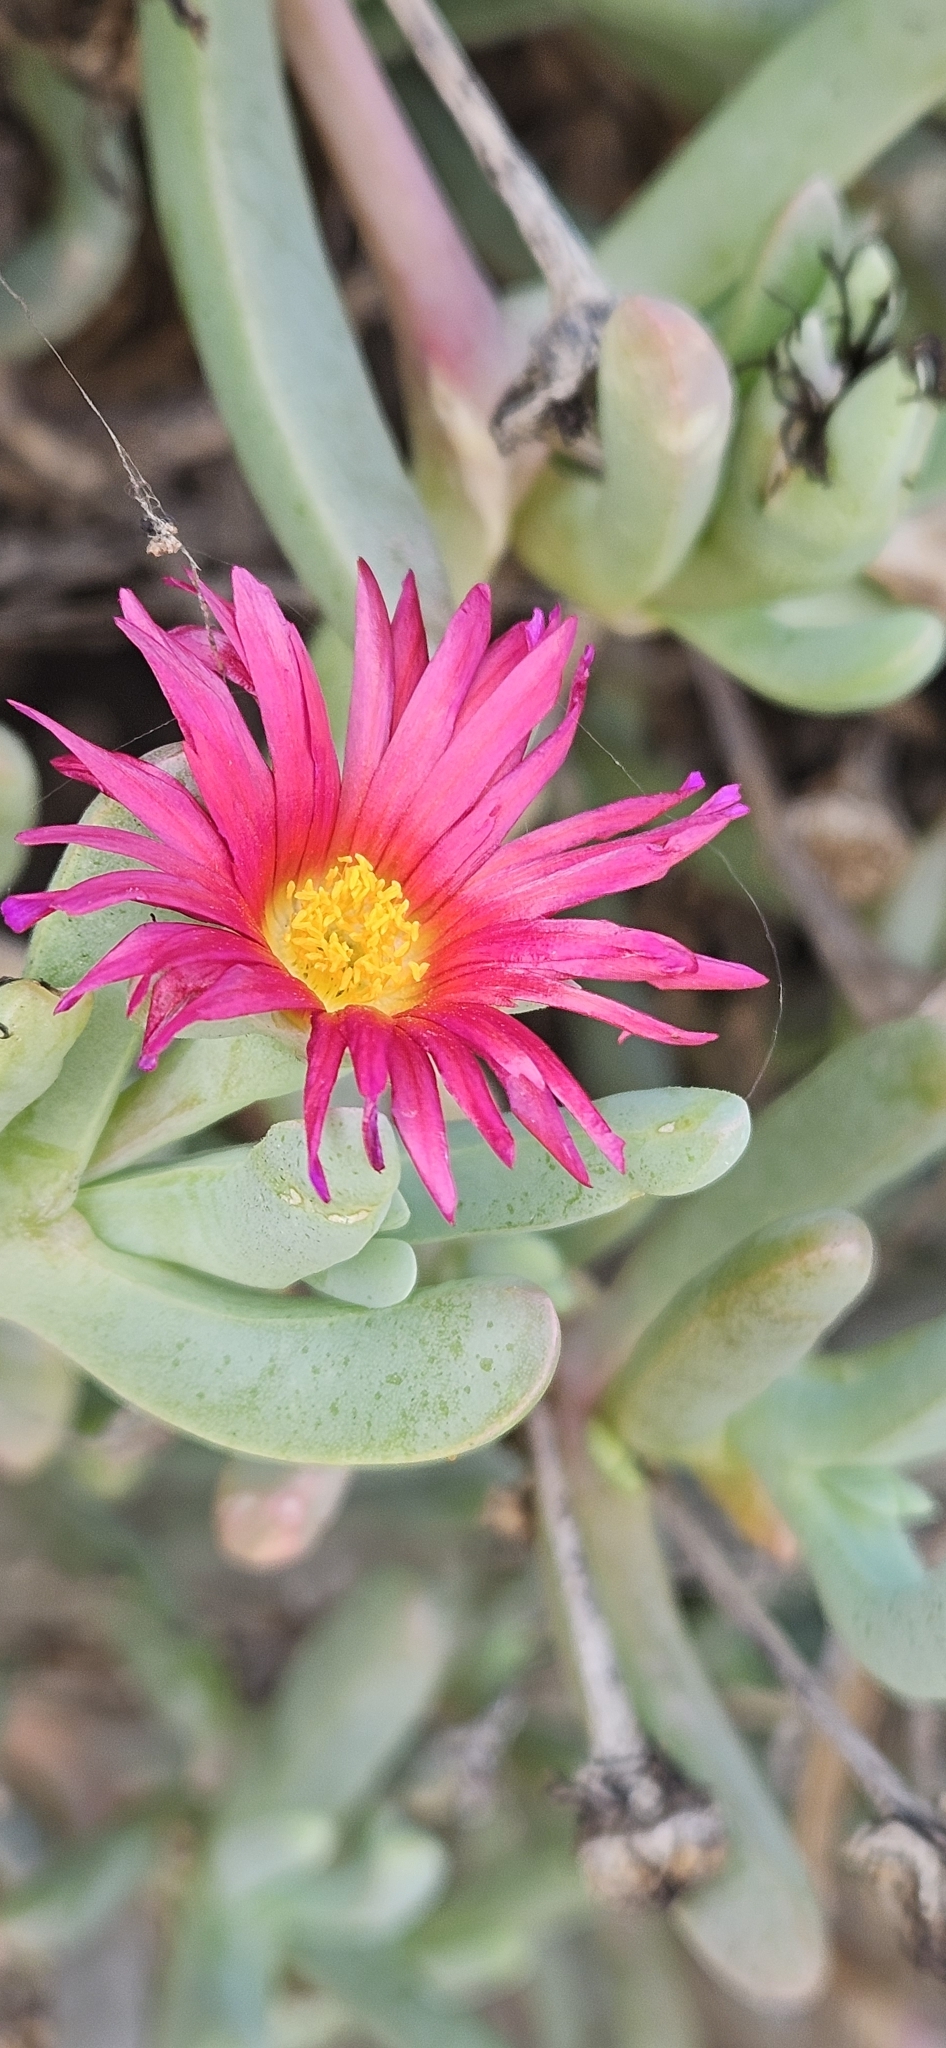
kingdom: Plantae
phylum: Tracheophyta
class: Magnoliopsida
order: Caryophyllales
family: Aizoaceae
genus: Malephora
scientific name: Malephora crocea
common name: Coppery mesemb
